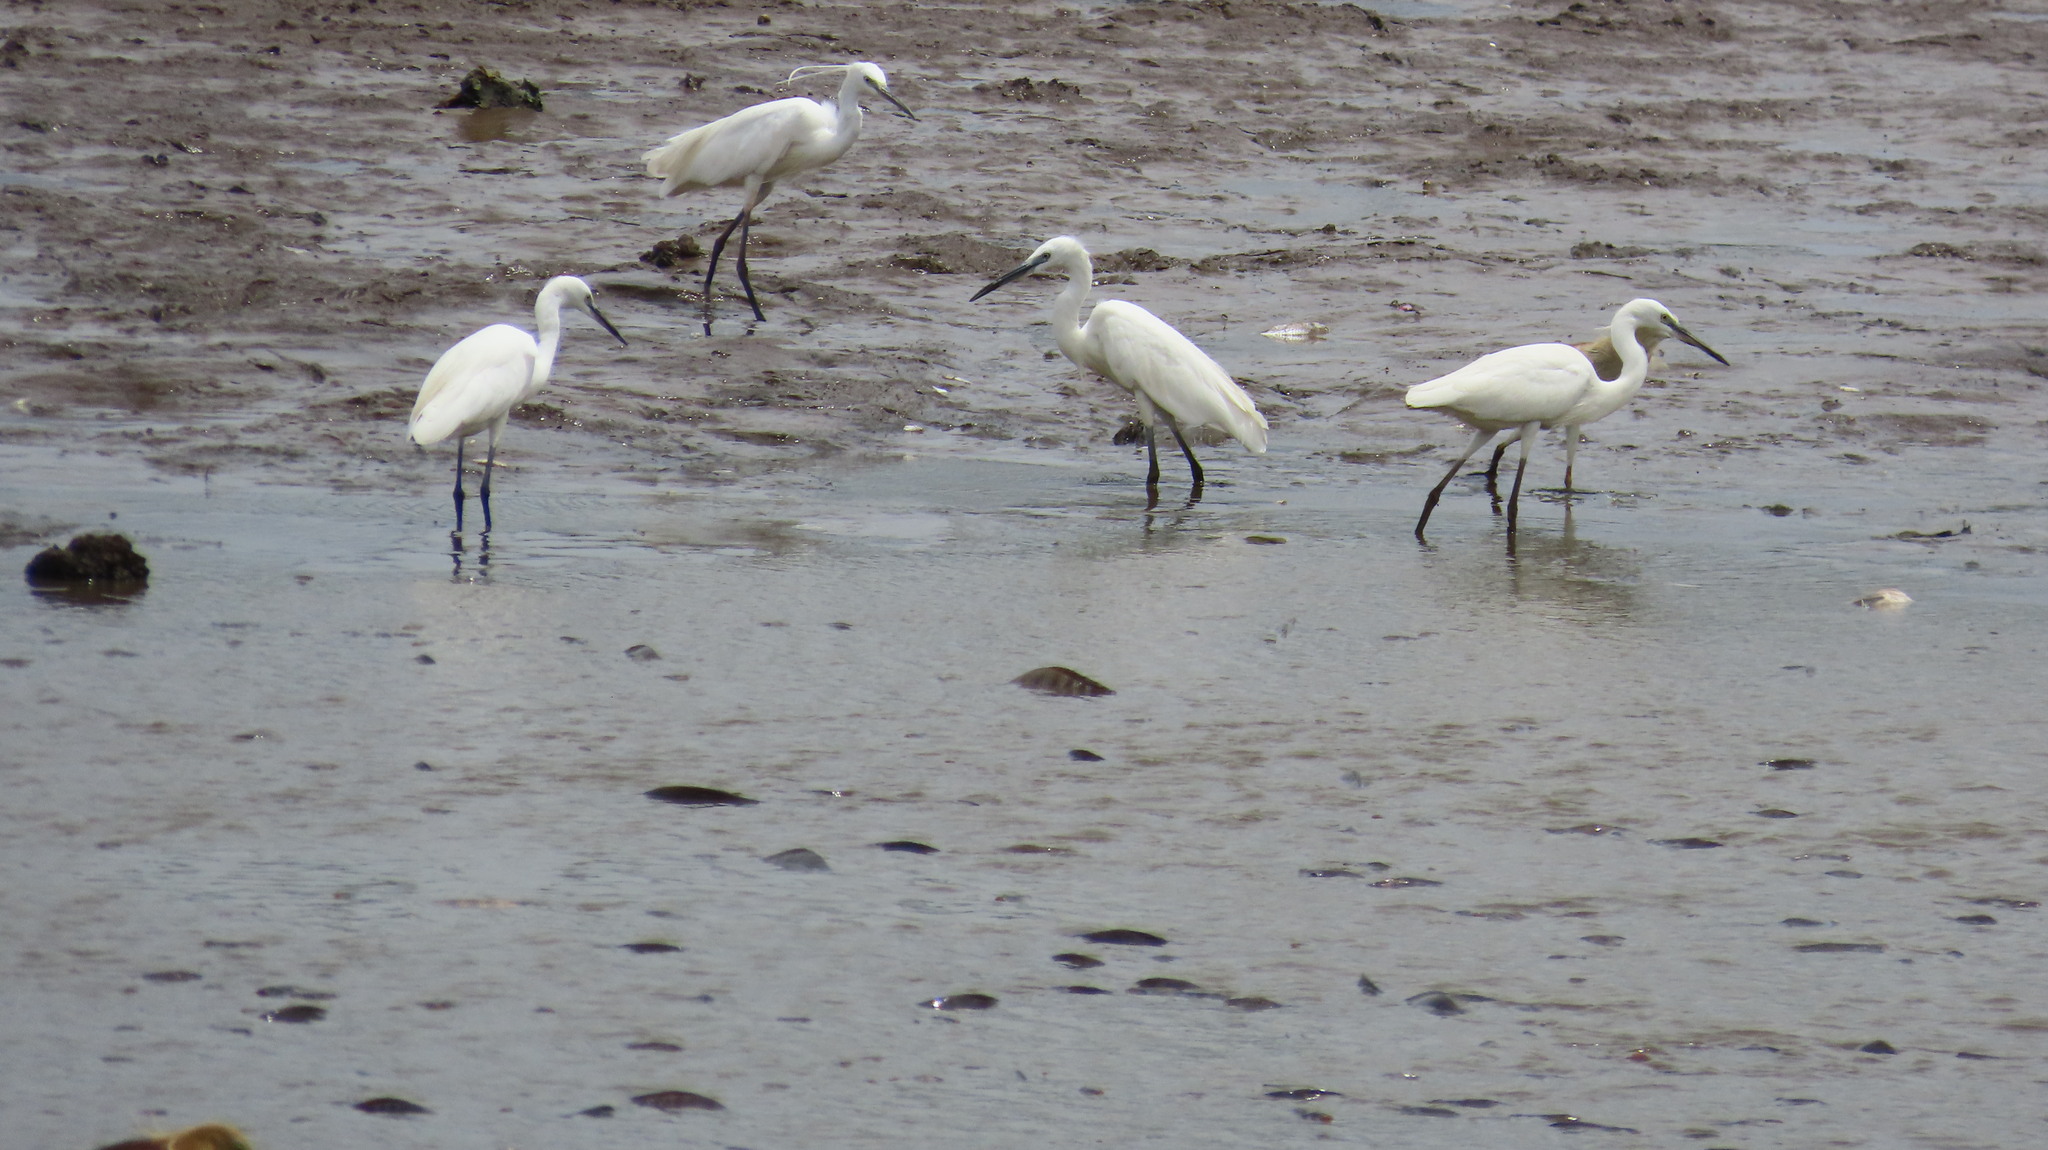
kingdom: Animalia
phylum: Chordata
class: Aves
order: Pelecaniformes
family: Ardeidae
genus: Egretta
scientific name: Egretta garzetta
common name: Little egret
